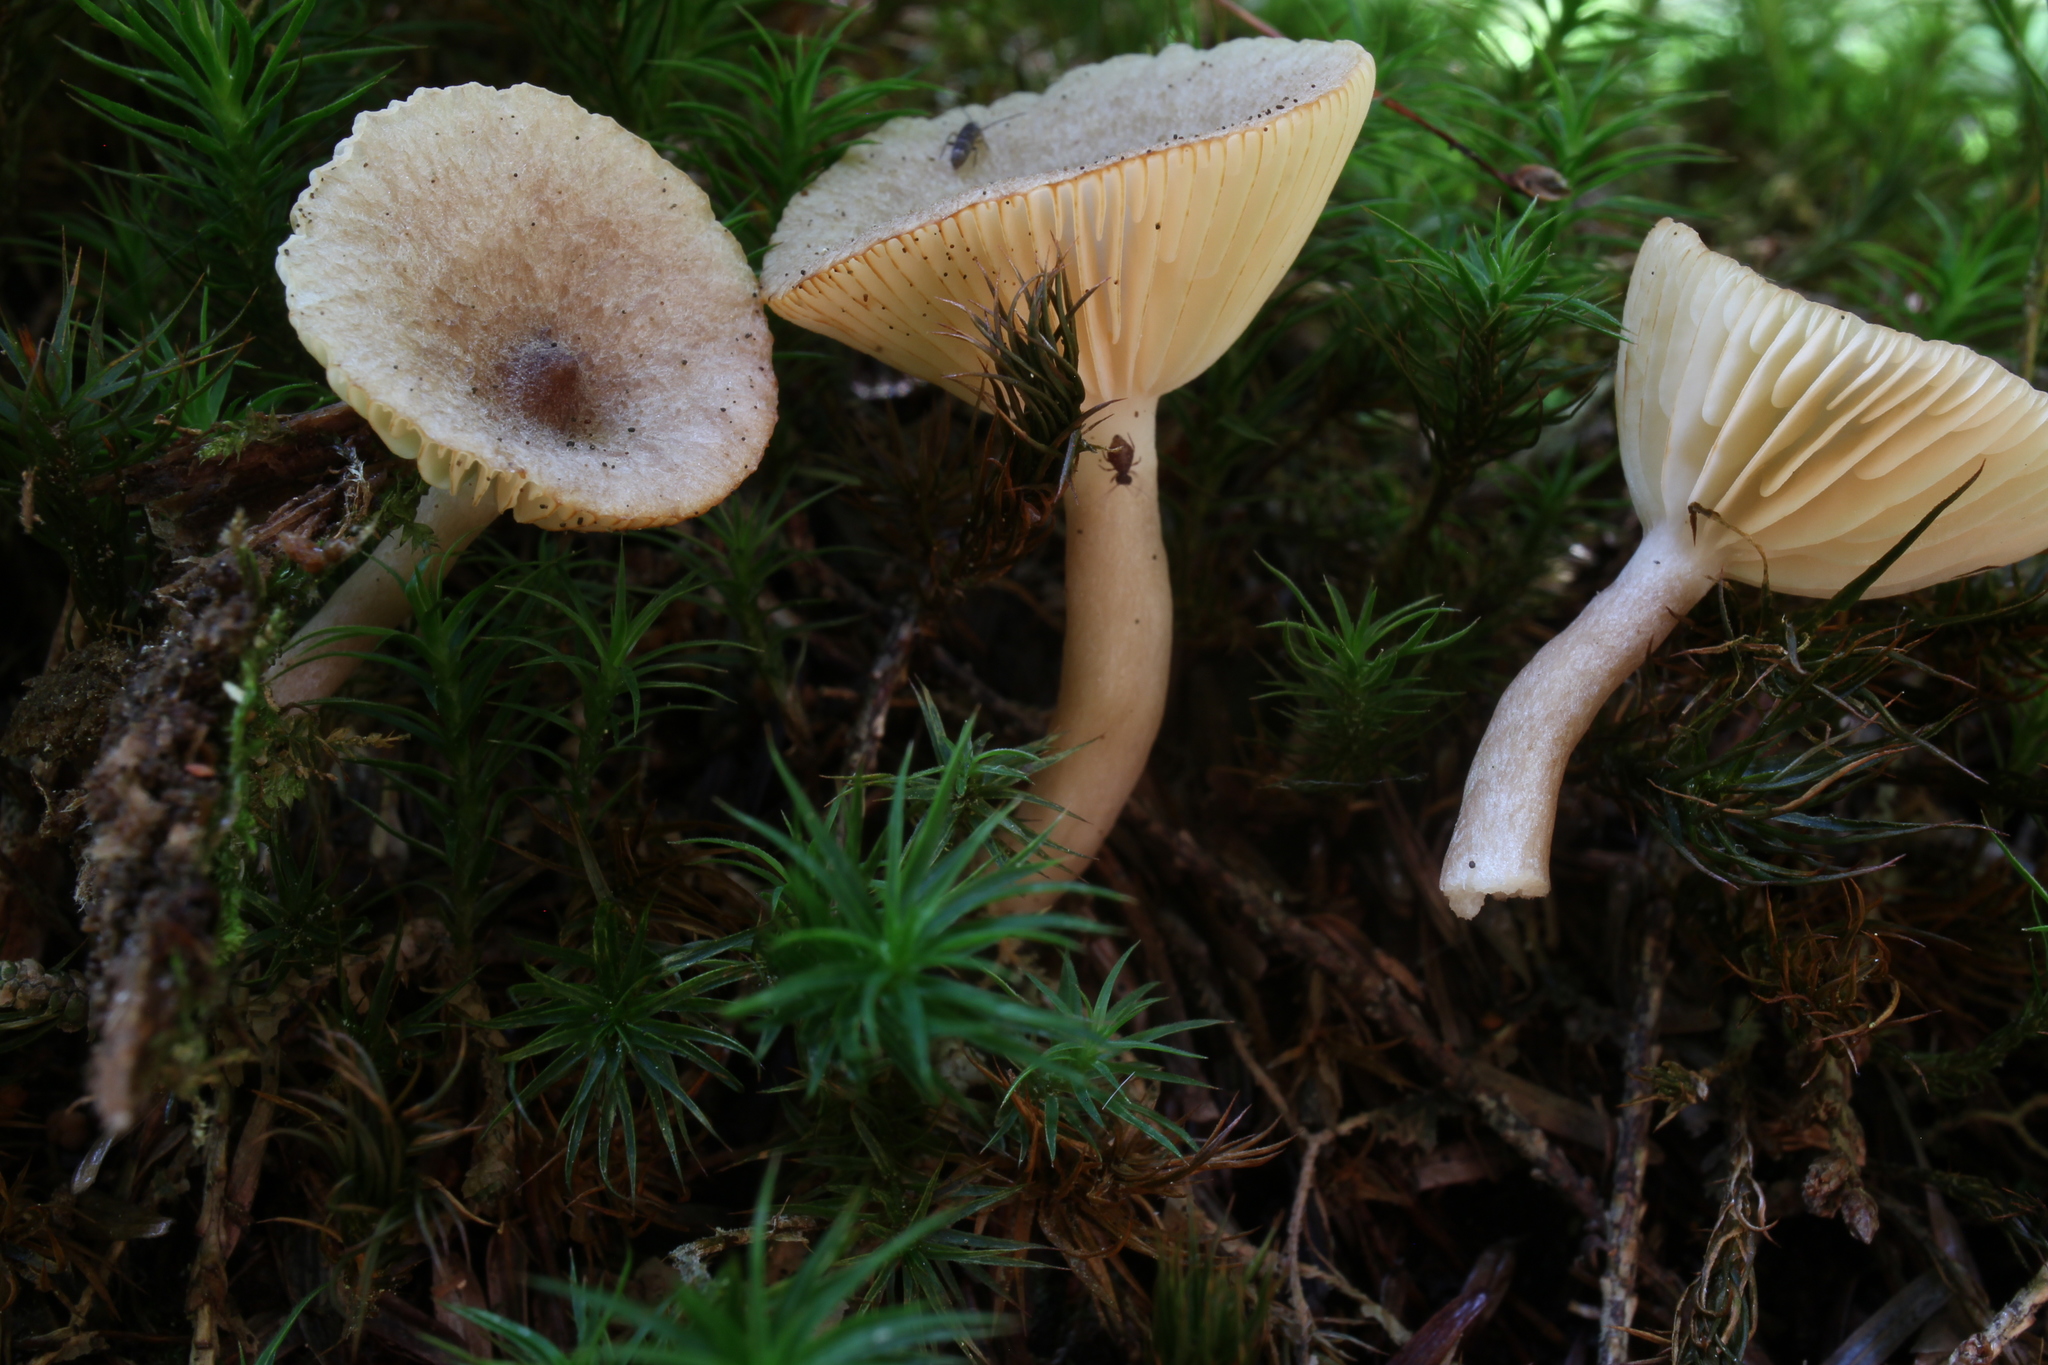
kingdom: Fungi
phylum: Basidiomycota
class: Agaricomycetes
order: Russulales
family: Russulaceae
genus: Lactarius
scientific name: Lactarius griseus
